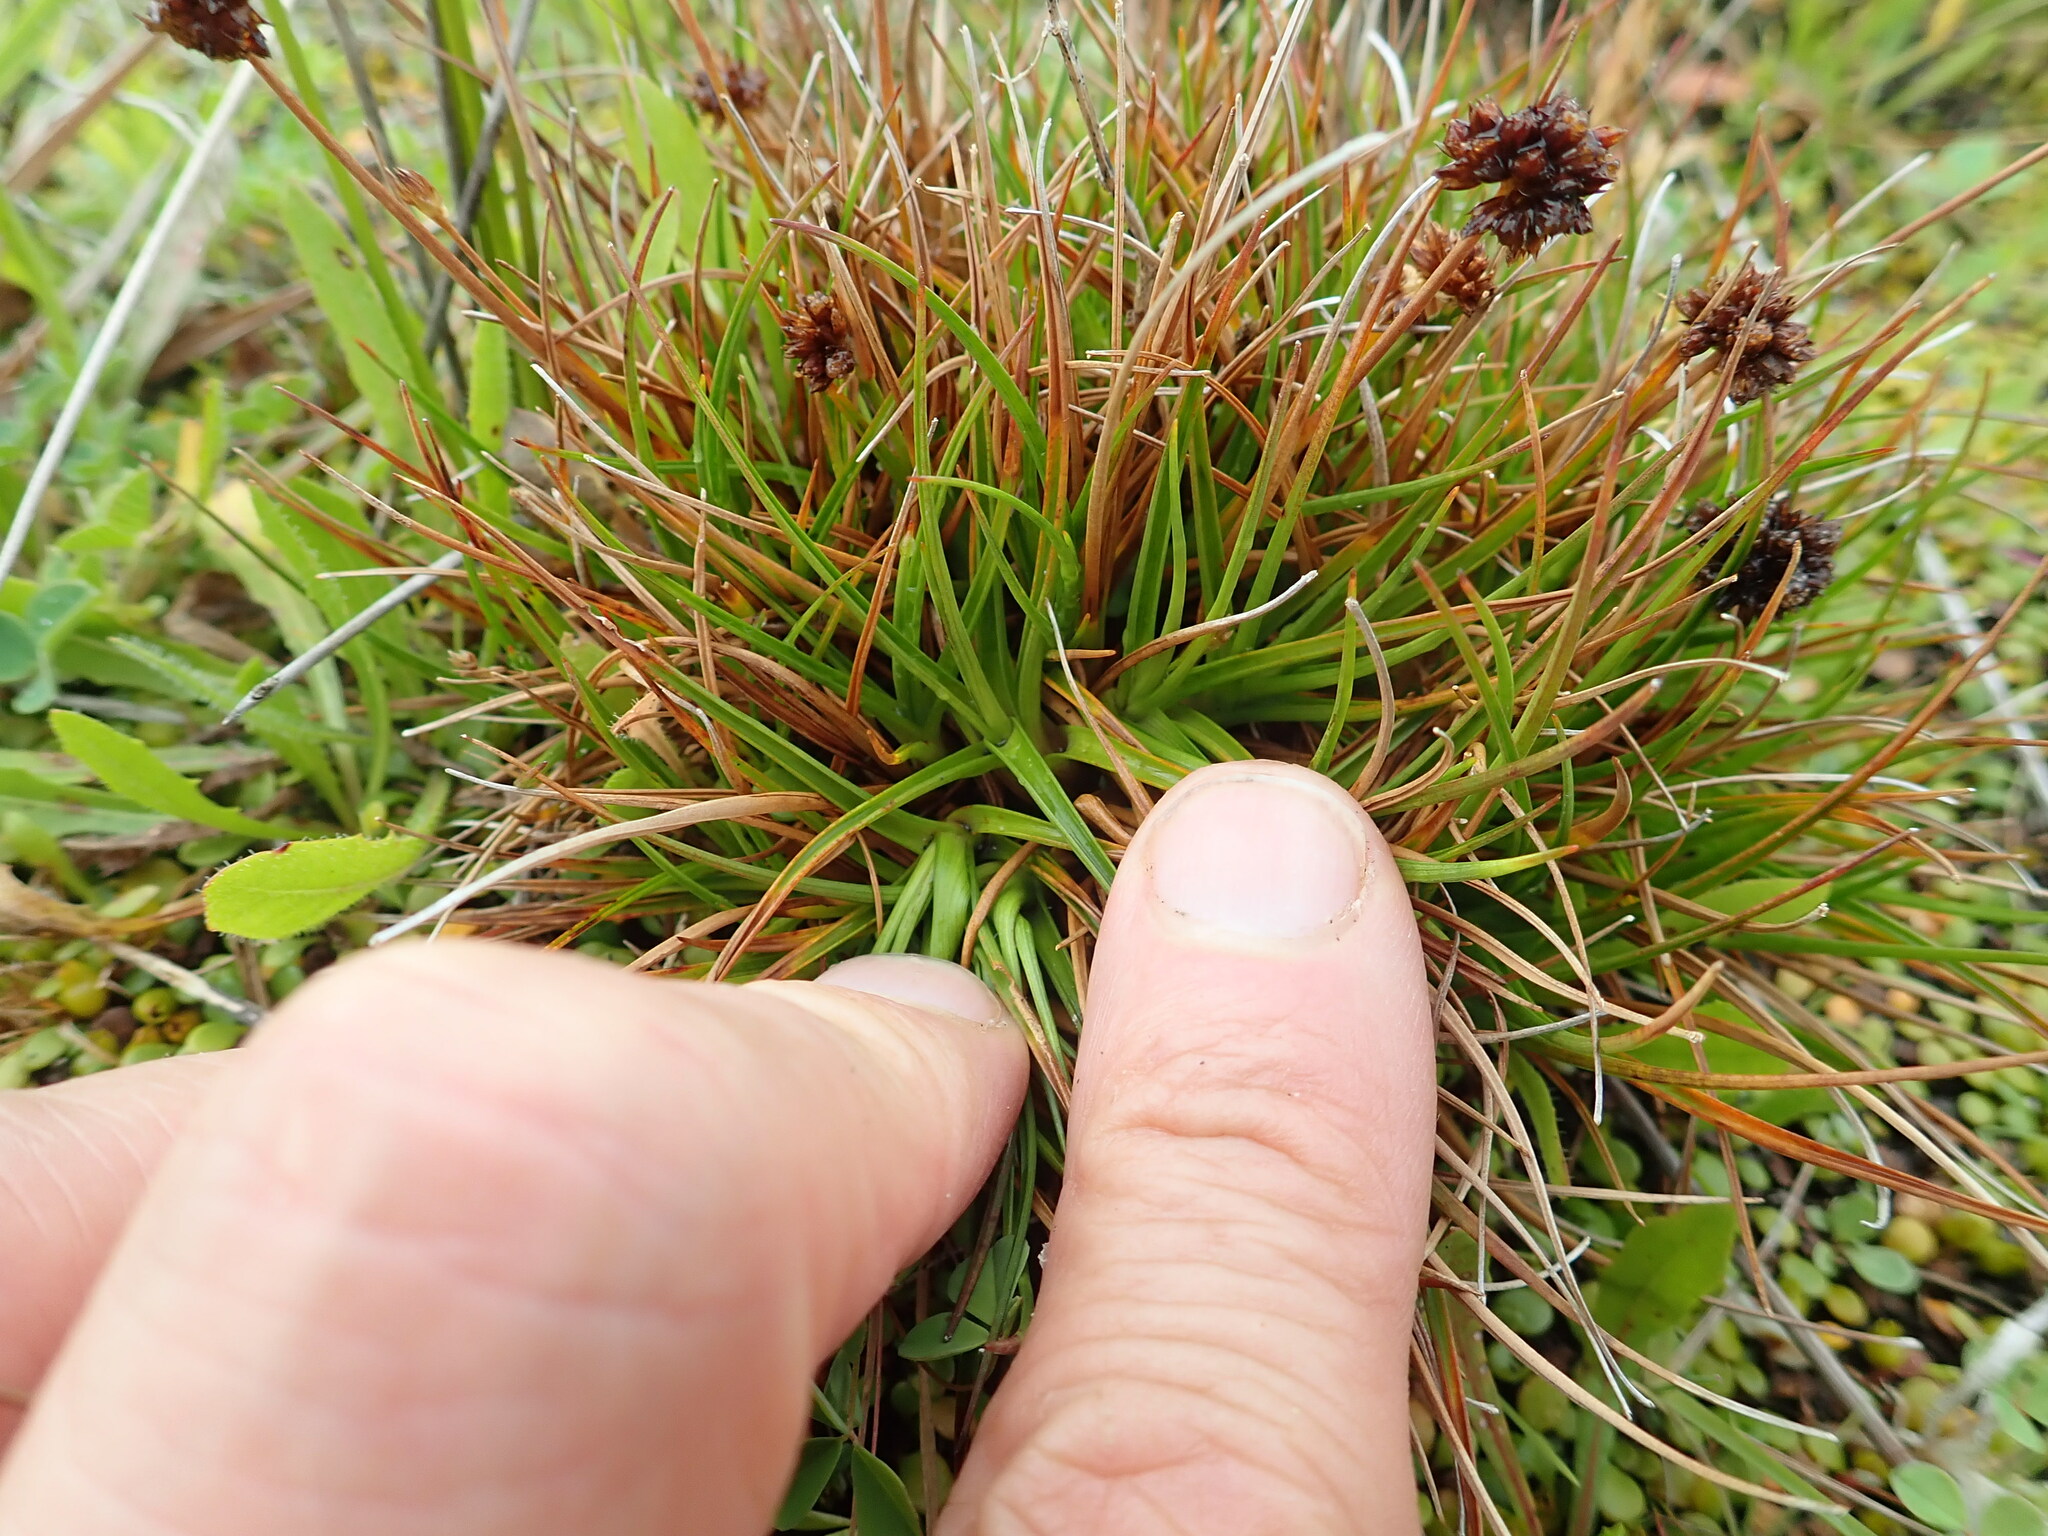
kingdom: Plantae
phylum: Tracheophyta
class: Liliopsida
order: Poales
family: Juncaceae
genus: Juncus
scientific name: Juncus caespiticius
